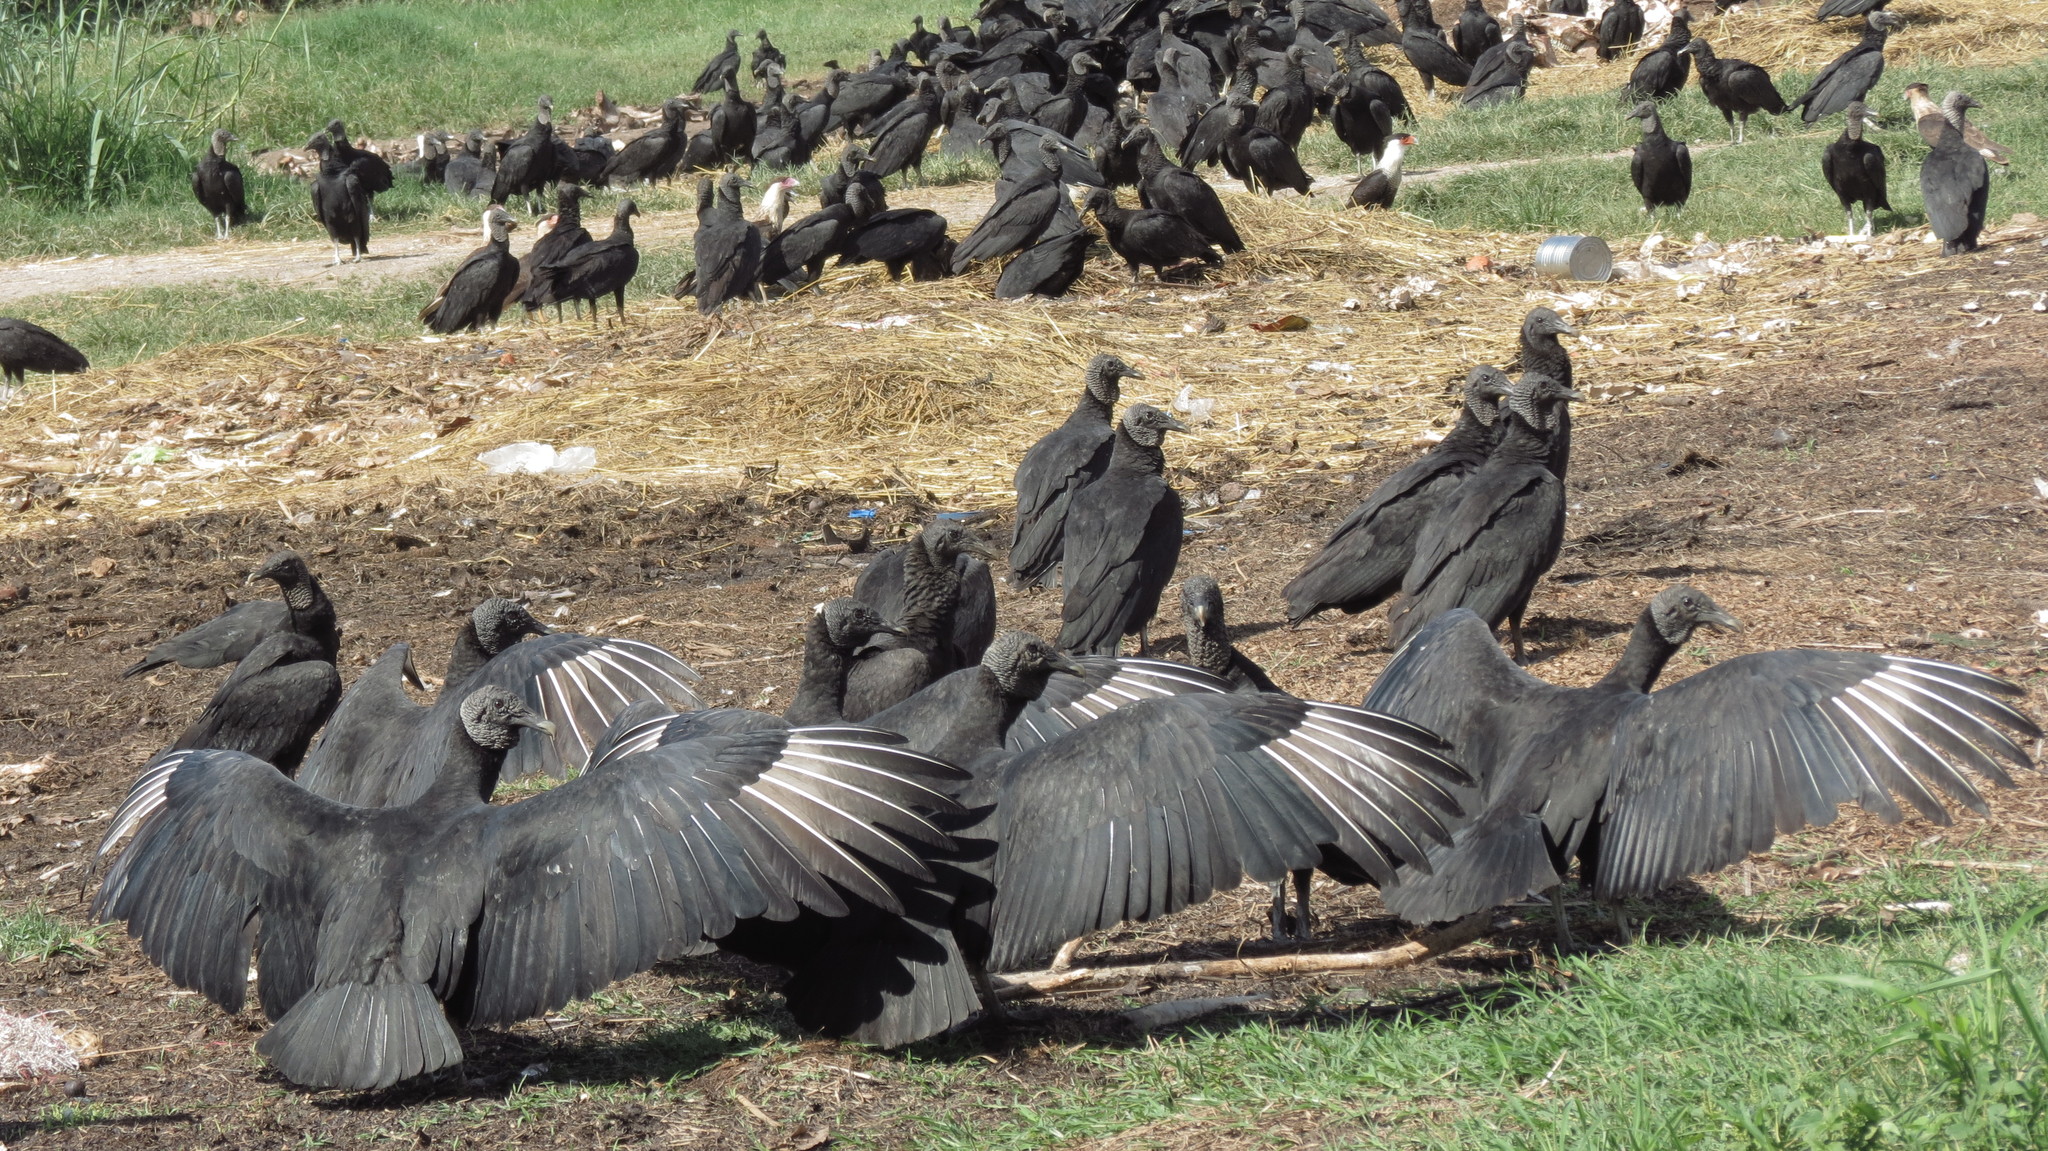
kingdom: Animalia
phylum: Chordata
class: Aves
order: Accipitriformes
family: Cathartidae
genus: Coragyps
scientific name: Coragyps atratus
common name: Black vulture
